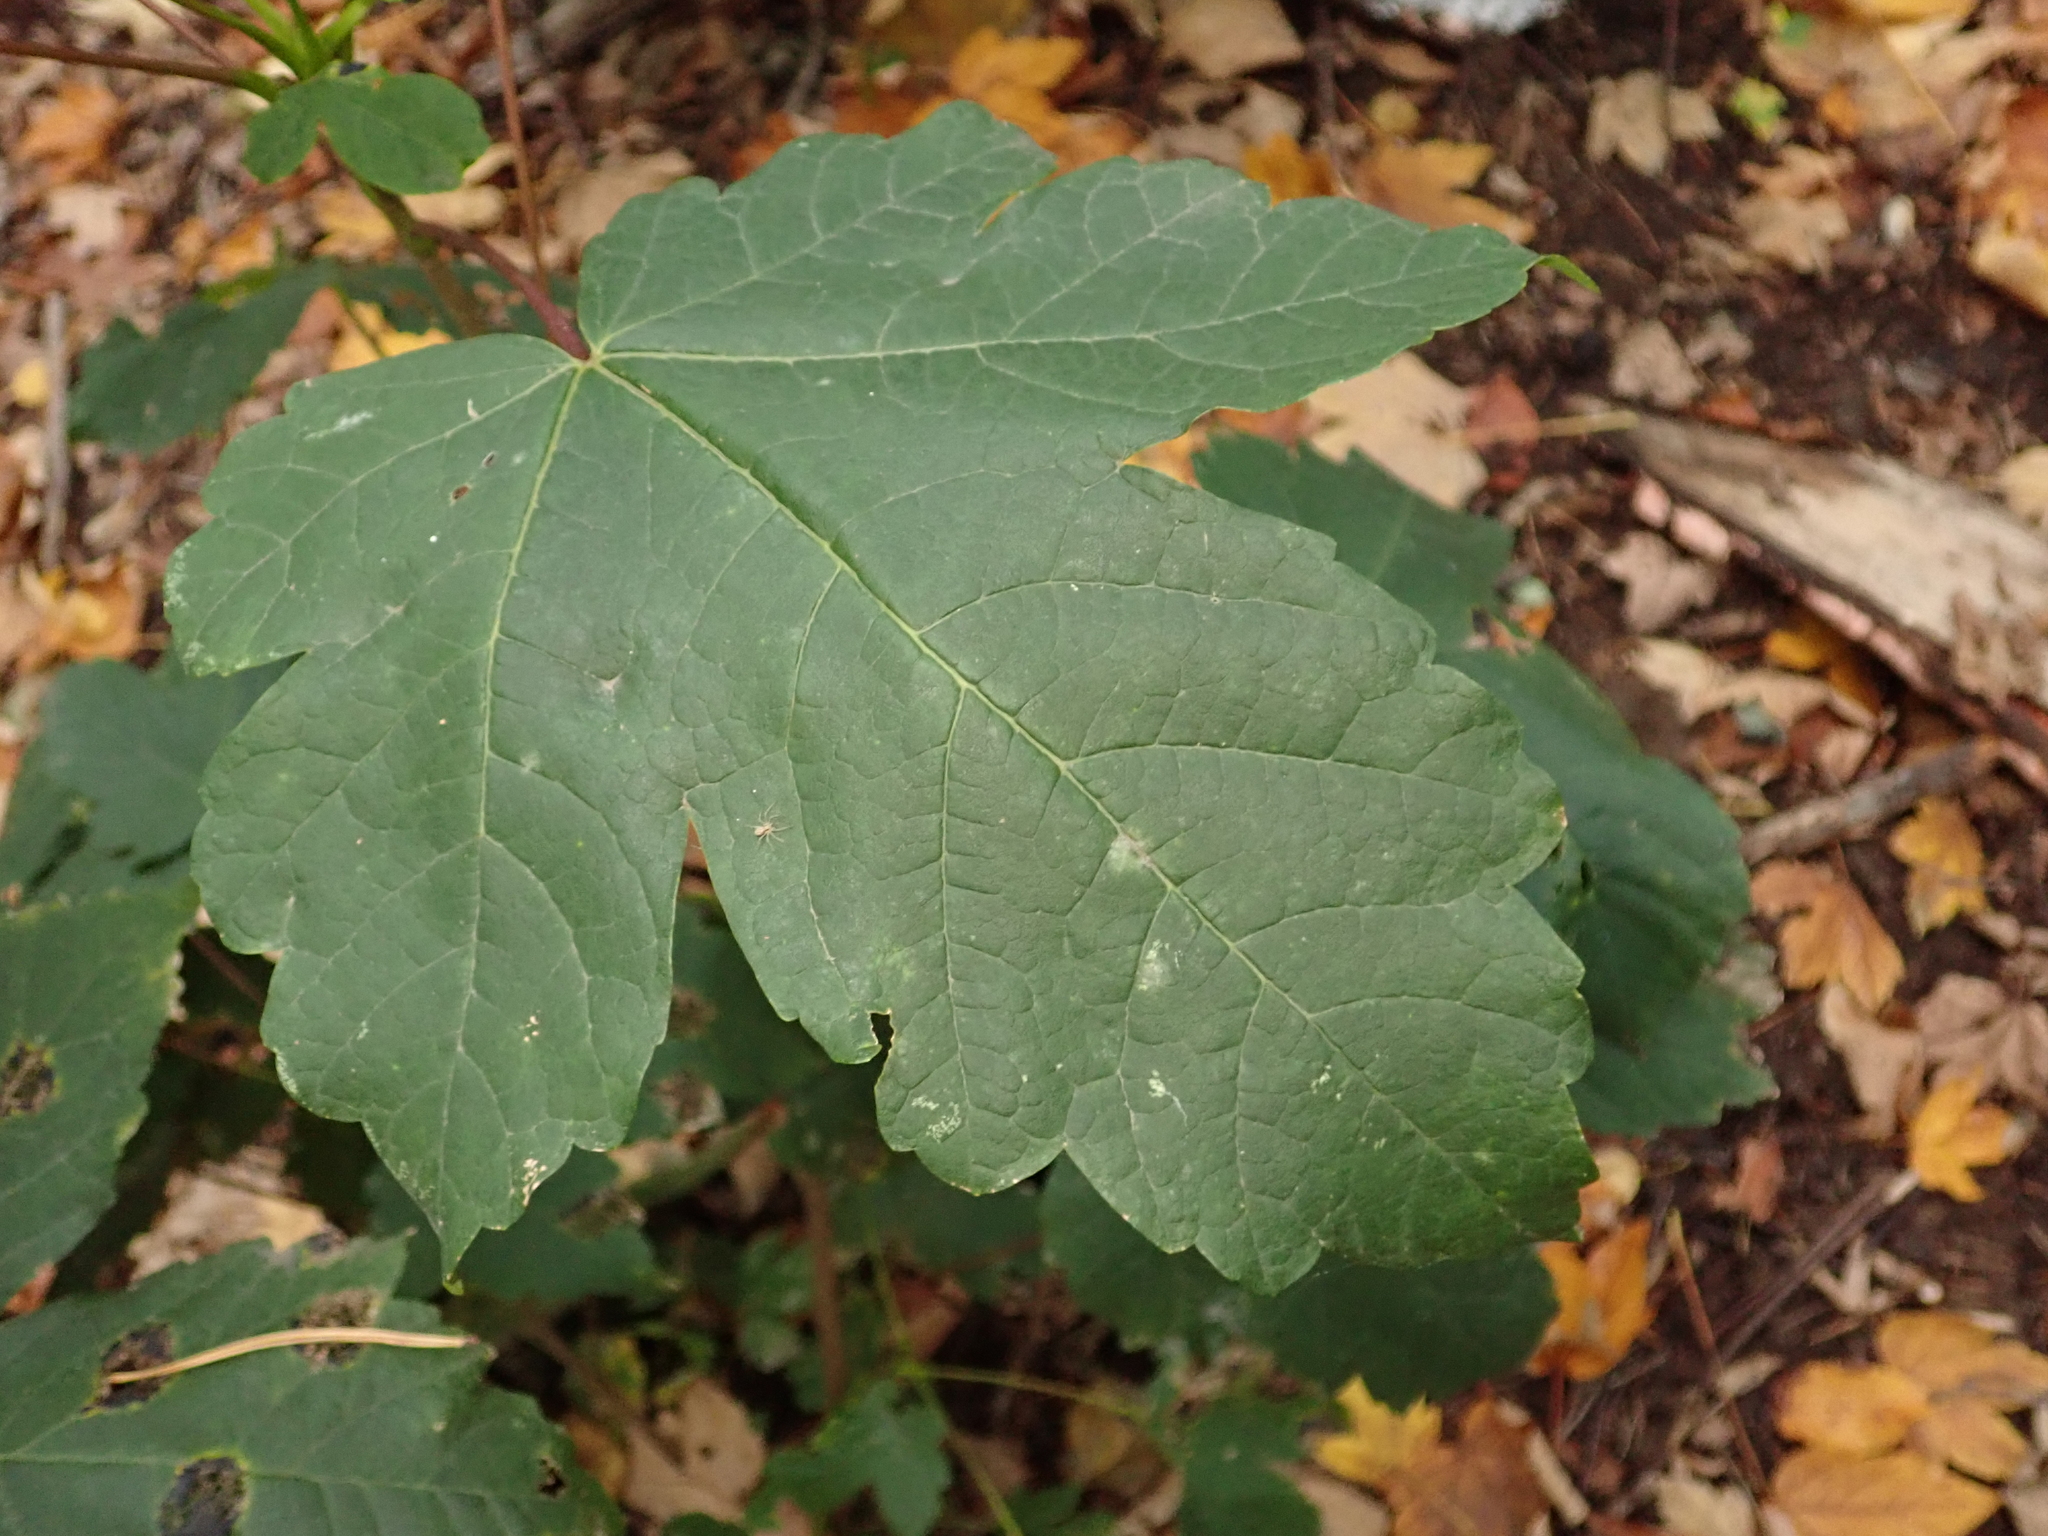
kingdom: Plantae
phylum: Tracheophyta
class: Magnoliopsida
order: Sapindales
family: Sapindaceae
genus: Acer
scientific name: Acer pseudoplatanus
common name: Sycamore
